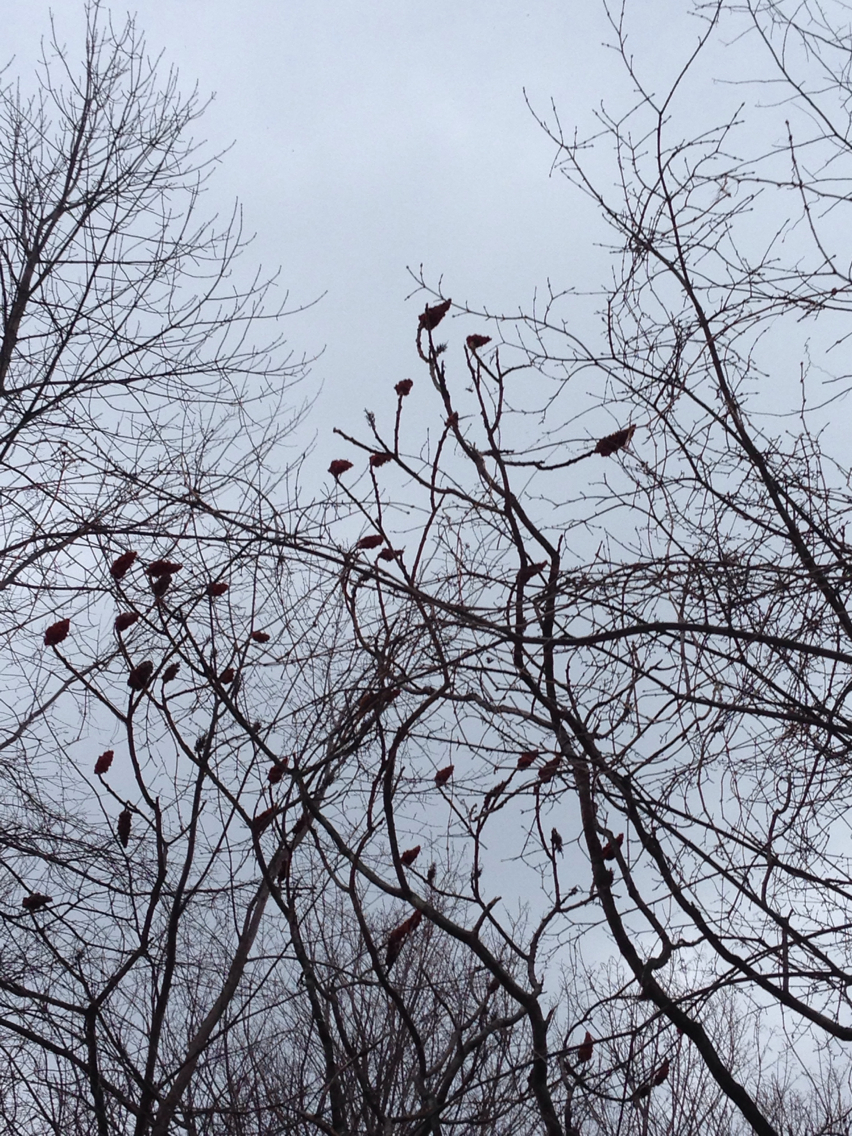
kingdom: Plantae
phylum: Tracheophyta
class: Magnoliopsida
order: Sapindales
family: Anacardiaceae
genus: Rhus
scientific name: Rhus typhina
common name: Staghorn sumac
